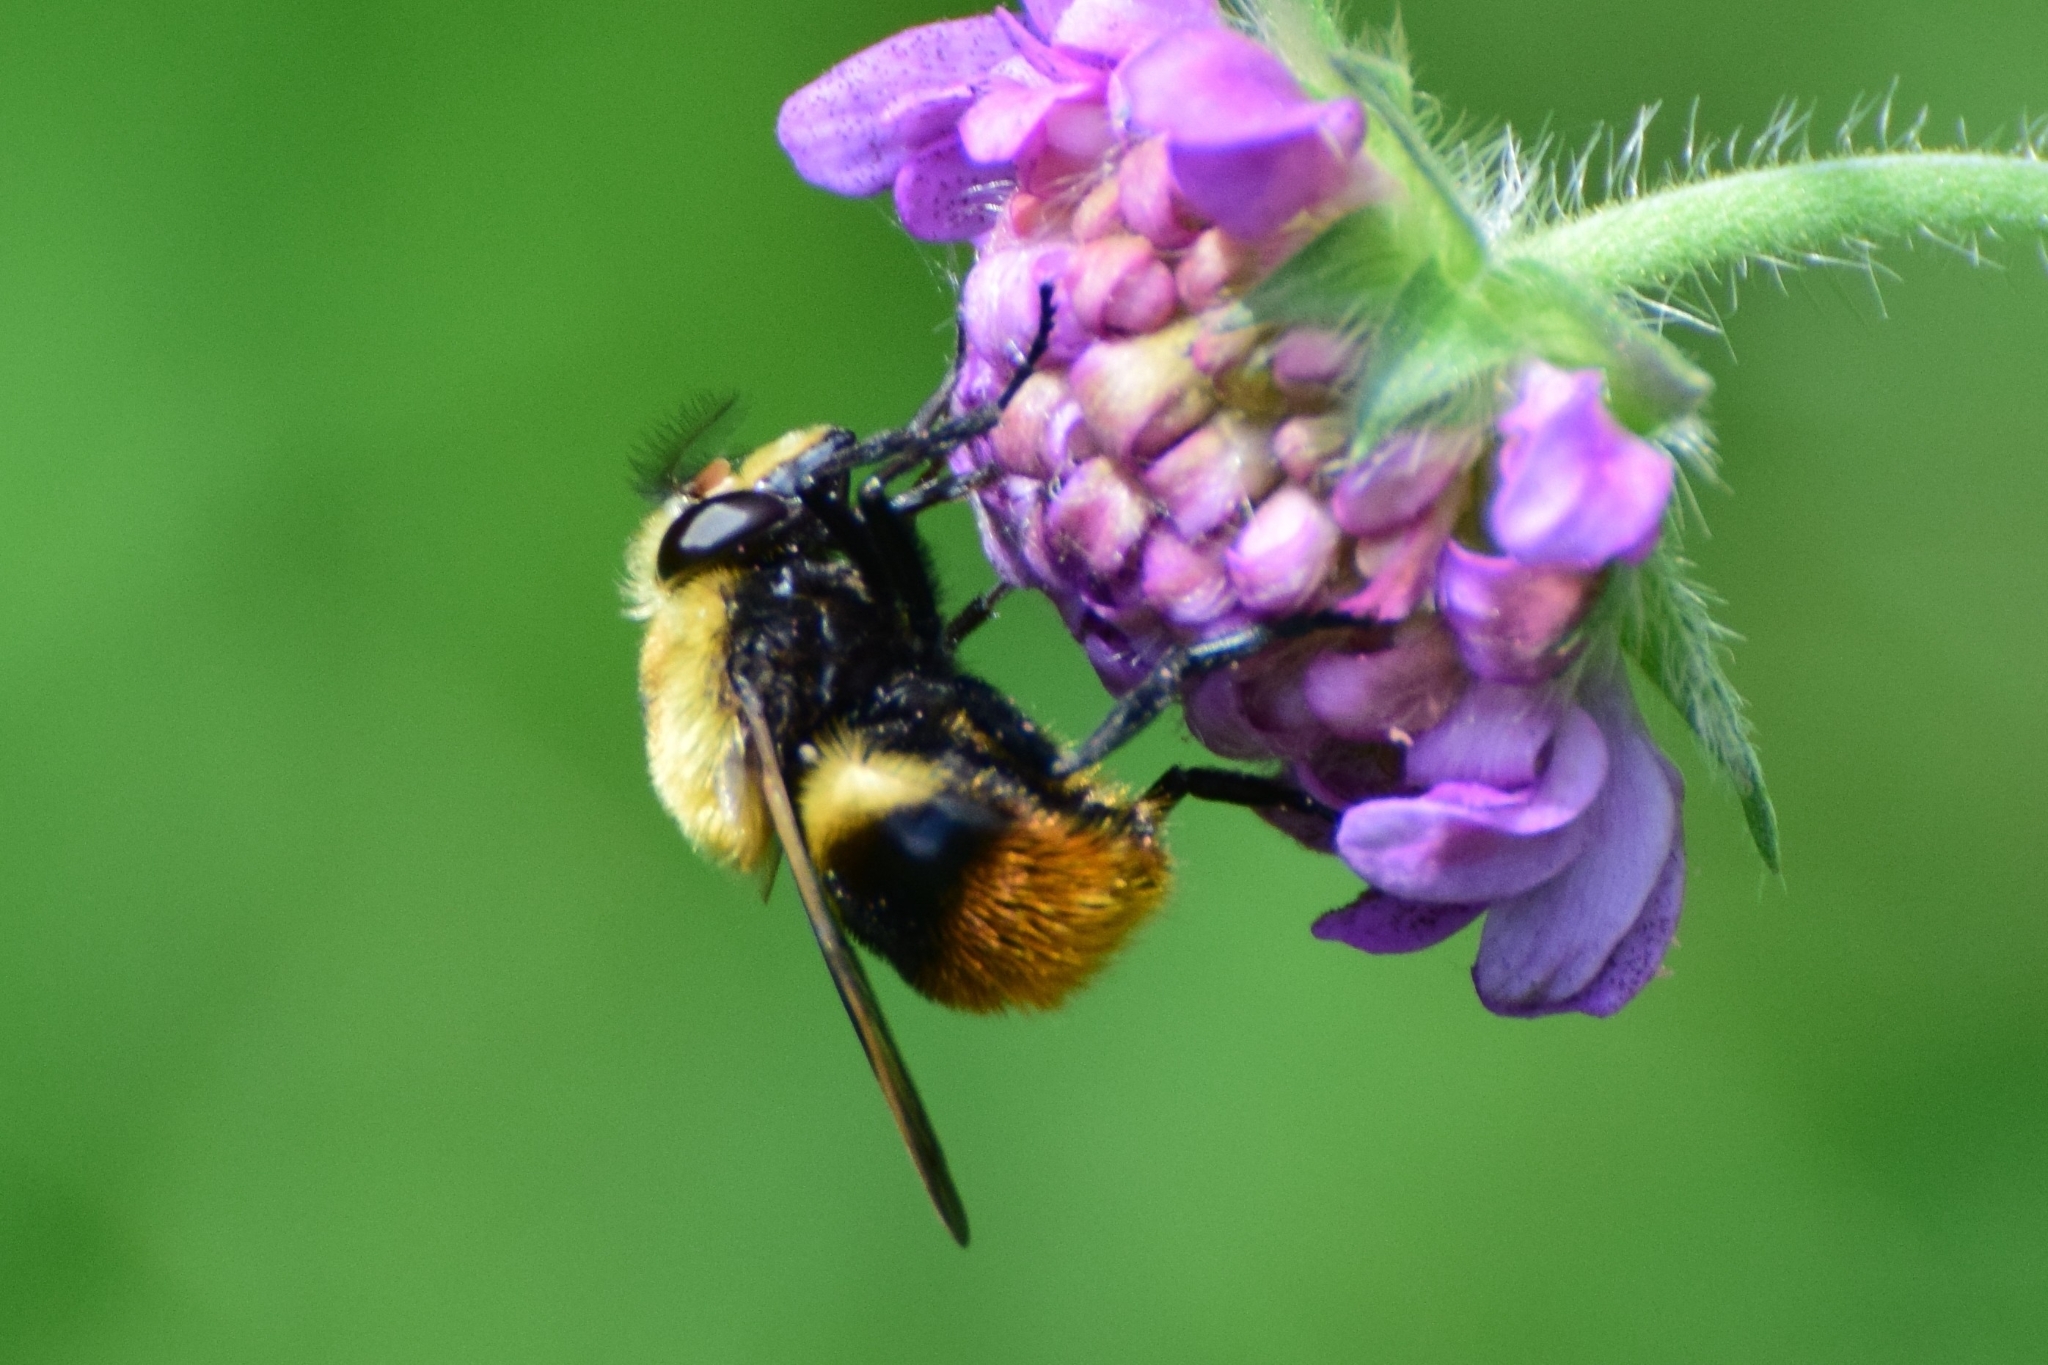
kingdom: Animalia
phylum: Arthropoda
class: Insecta
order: Diptera
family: Syrphidae
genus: Volucella
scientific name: Volucella bombylans
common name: Bumble bee hover fly
